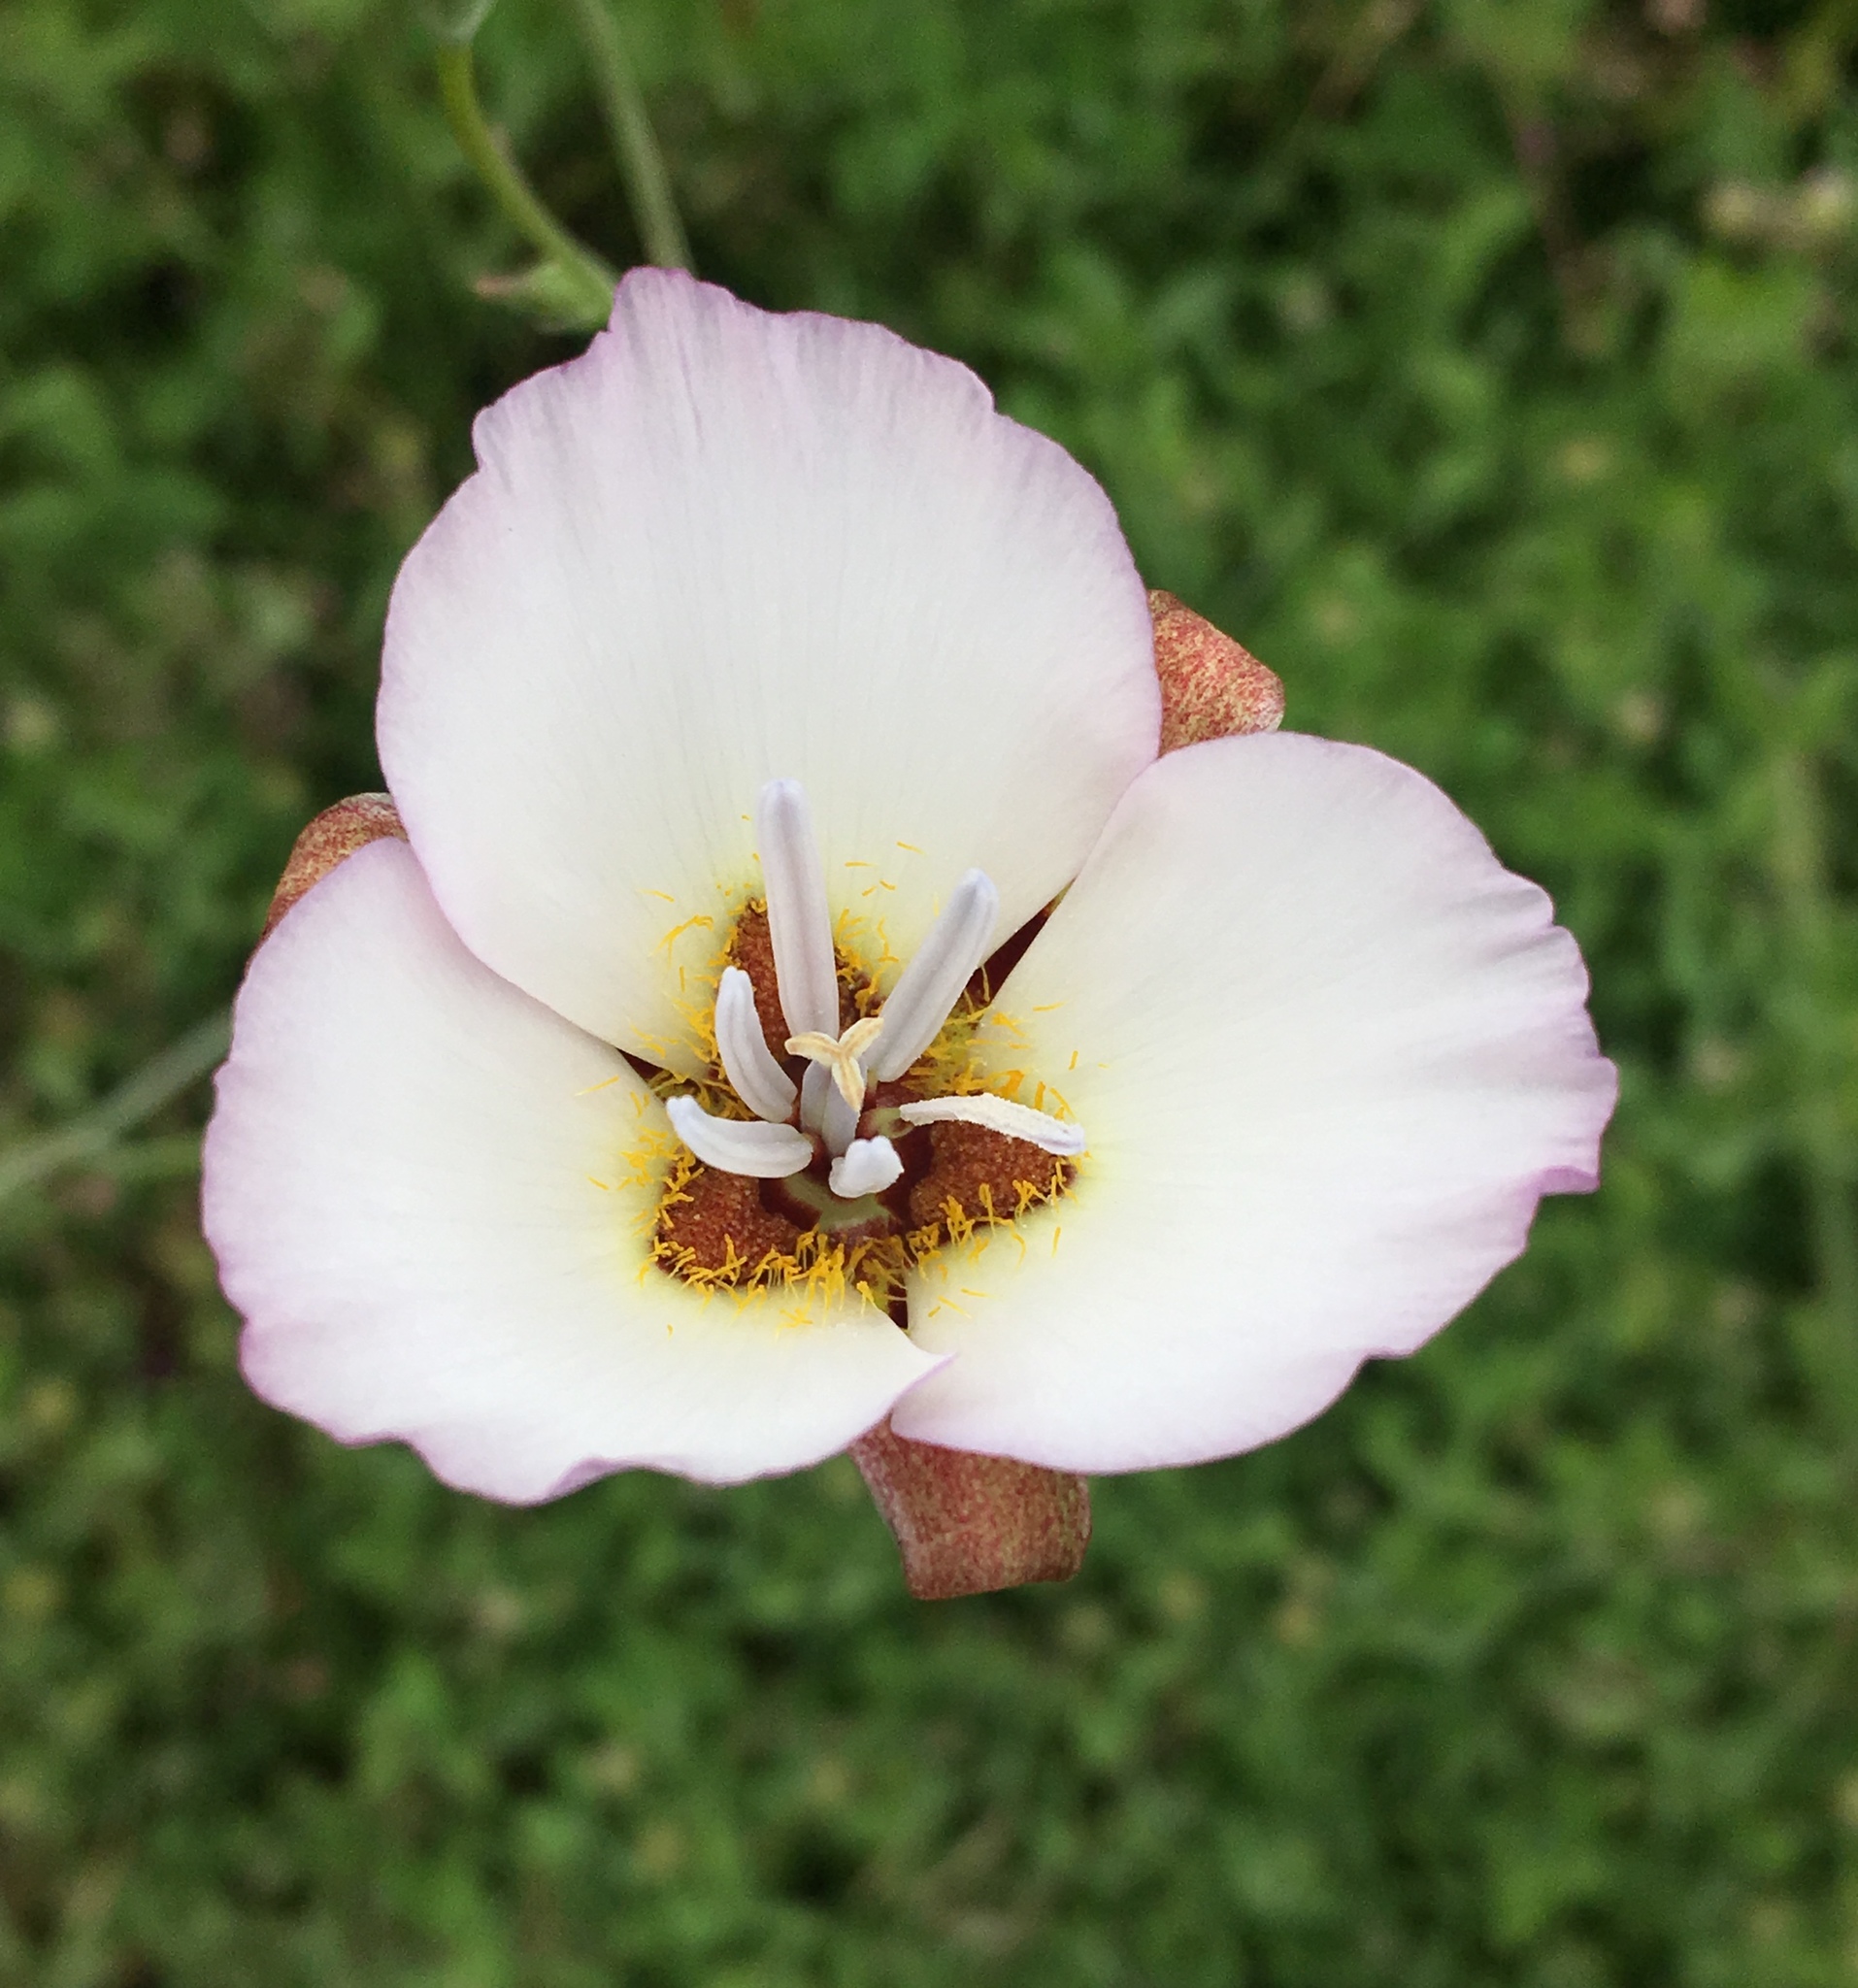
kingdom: Plantae
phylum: Tracheophyta
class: Liliopsida
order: Liliales
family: Liliaceae
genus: Calochortus
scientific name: Calochortus palmeri
